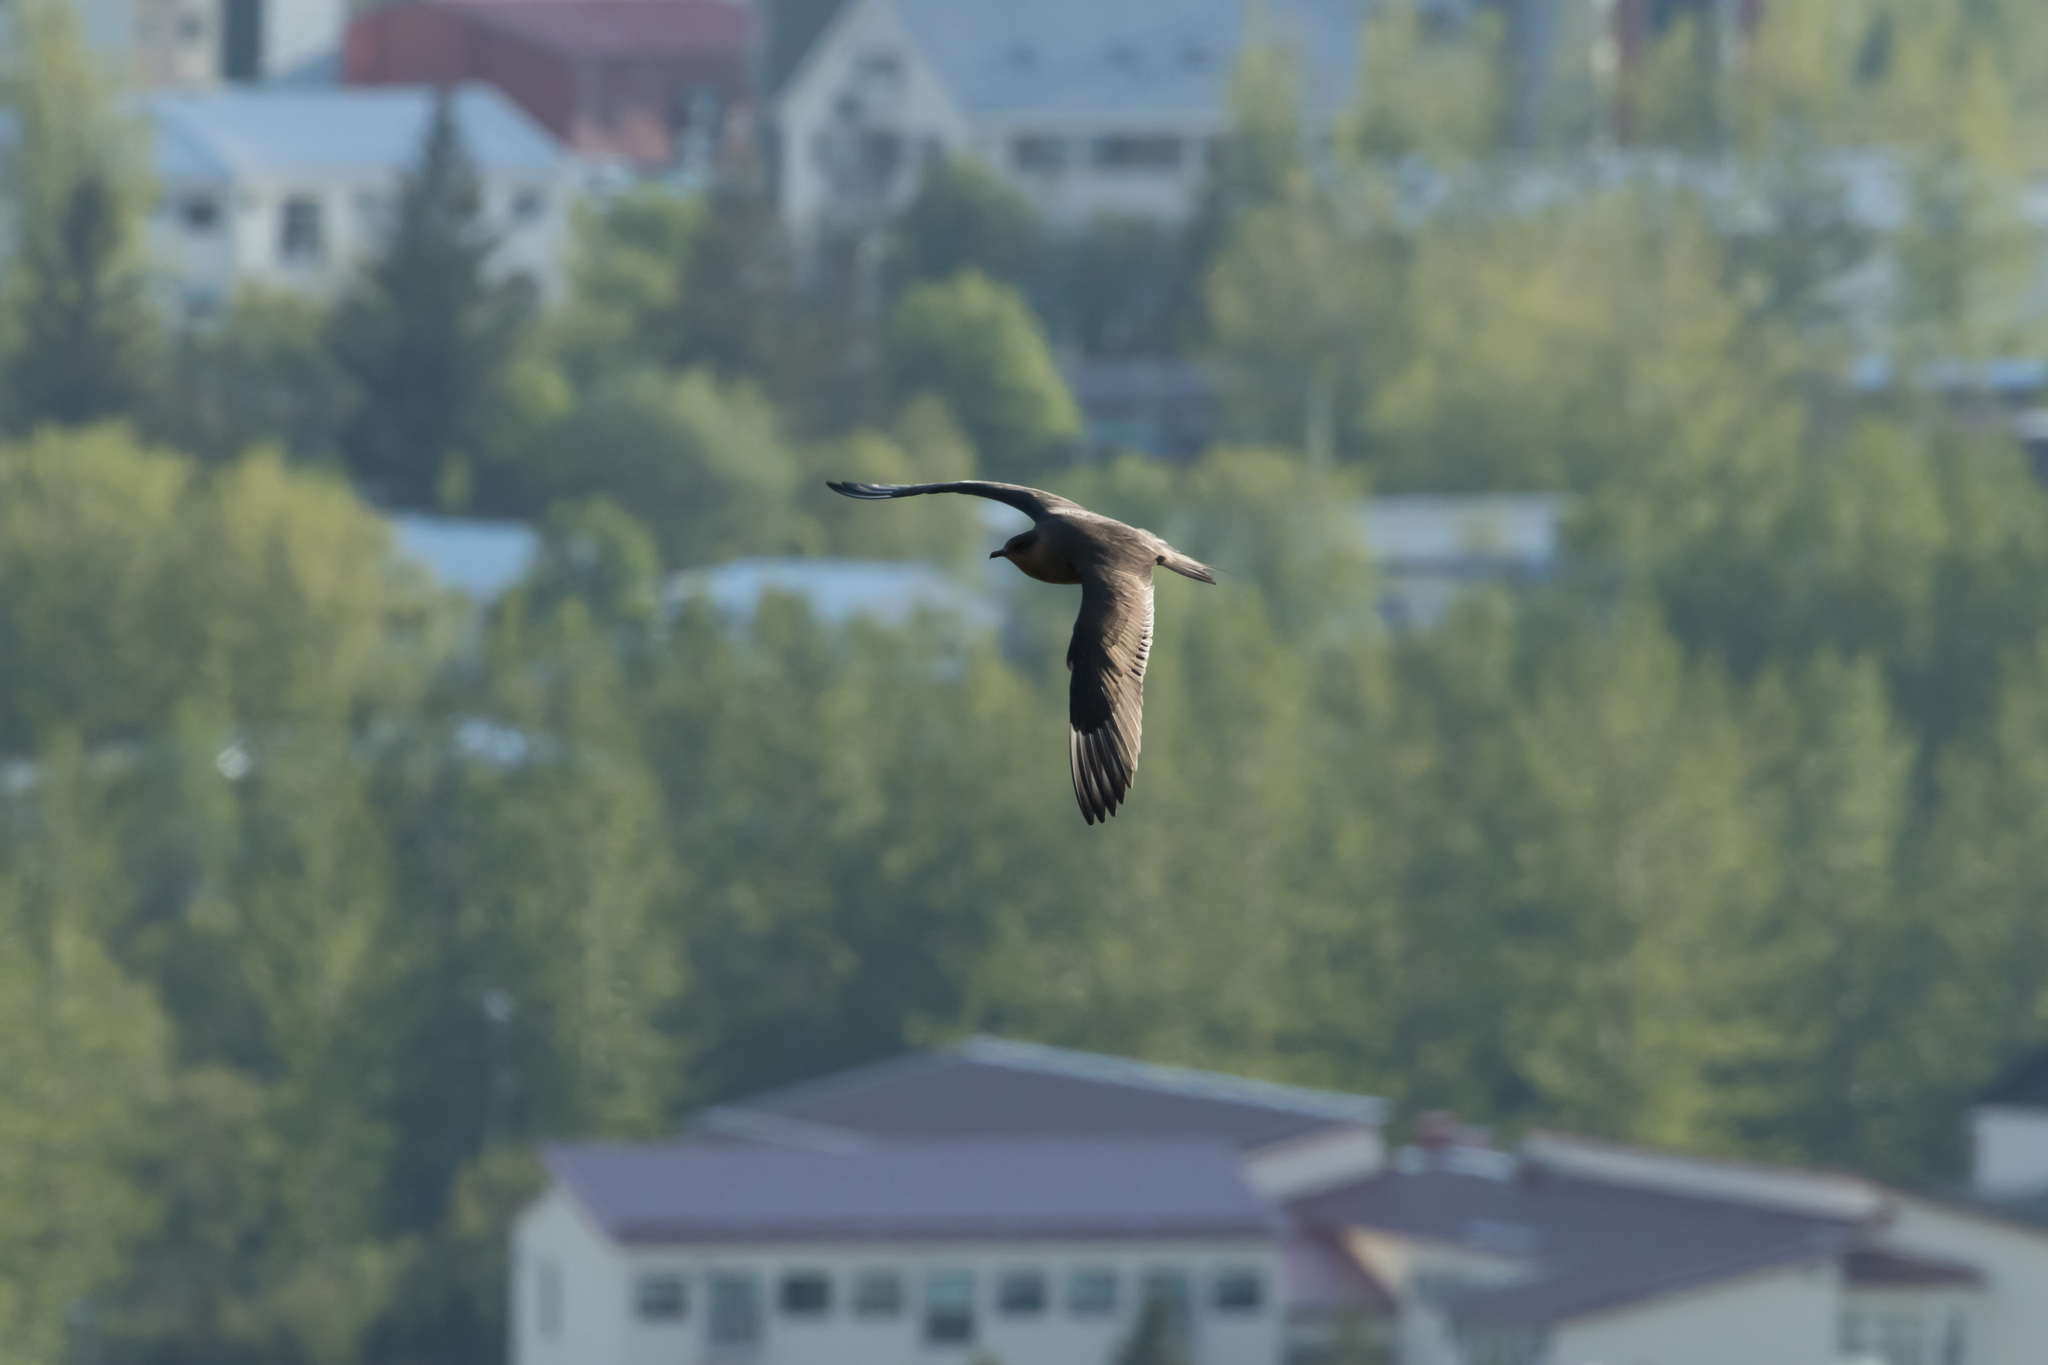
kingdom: Animalia
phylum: Chordata
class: Aves
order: Charadriiformes
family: Stercorariidae
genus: Stercorarius
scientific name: Stercorarius parasiticus
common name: Parasitic jaeger
